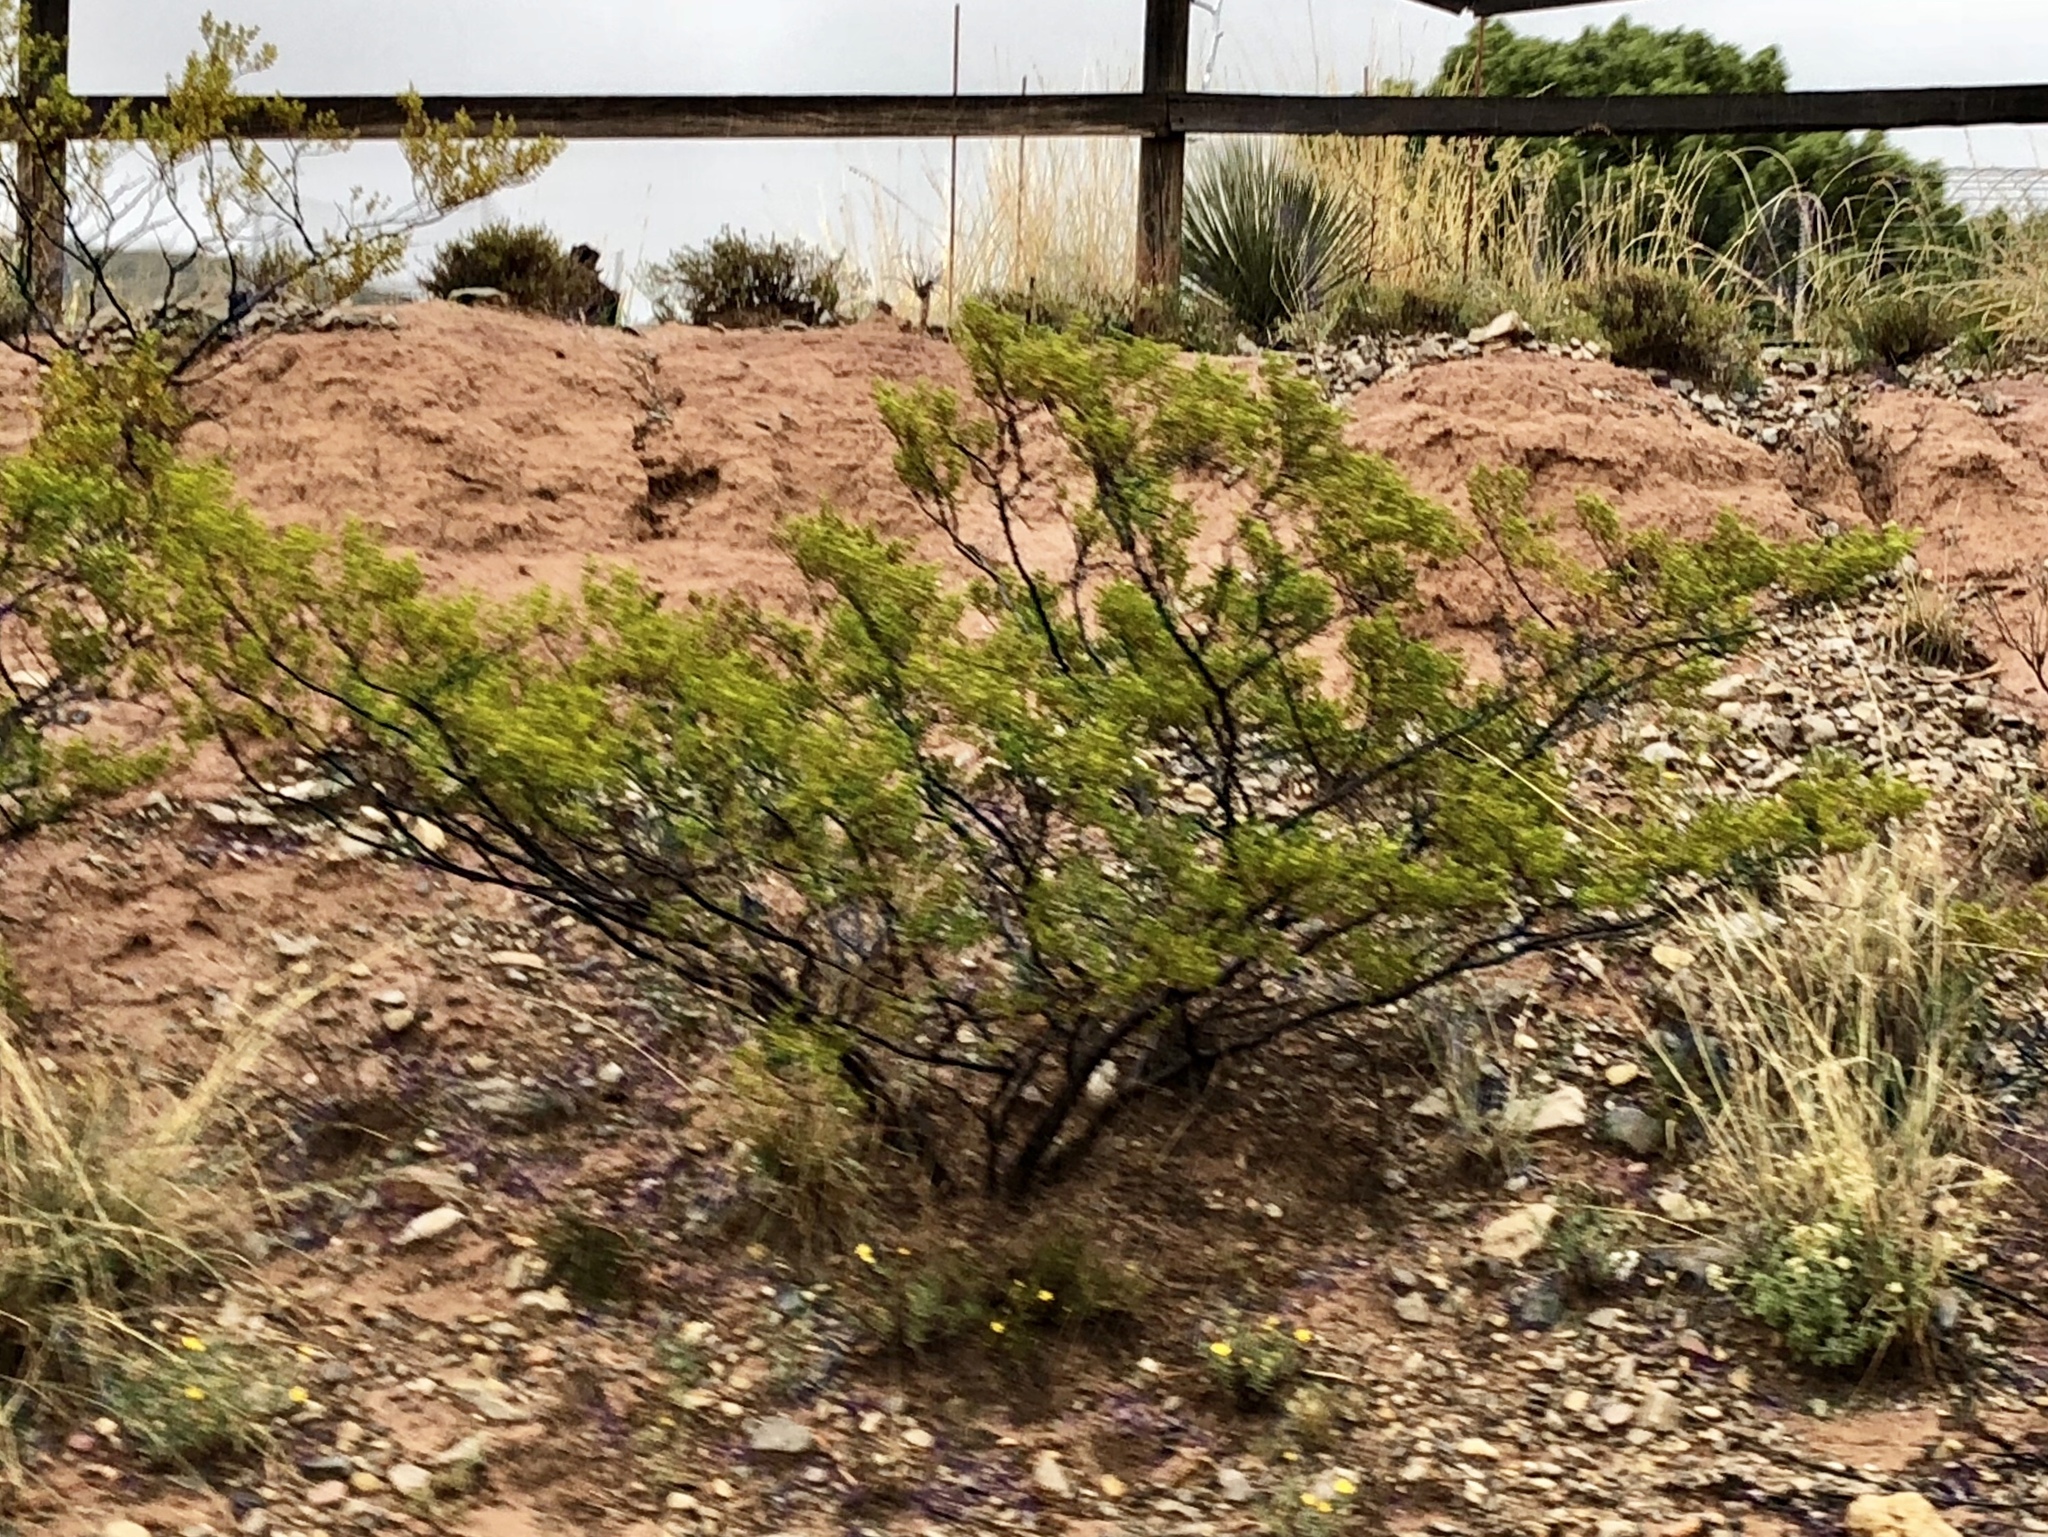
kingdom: Plantae
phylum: Tracheophyta
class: Magnoliopsida
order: Zygophyllales
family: Zygophyllaceae
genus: Larrea
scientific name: Larrea tridentata
